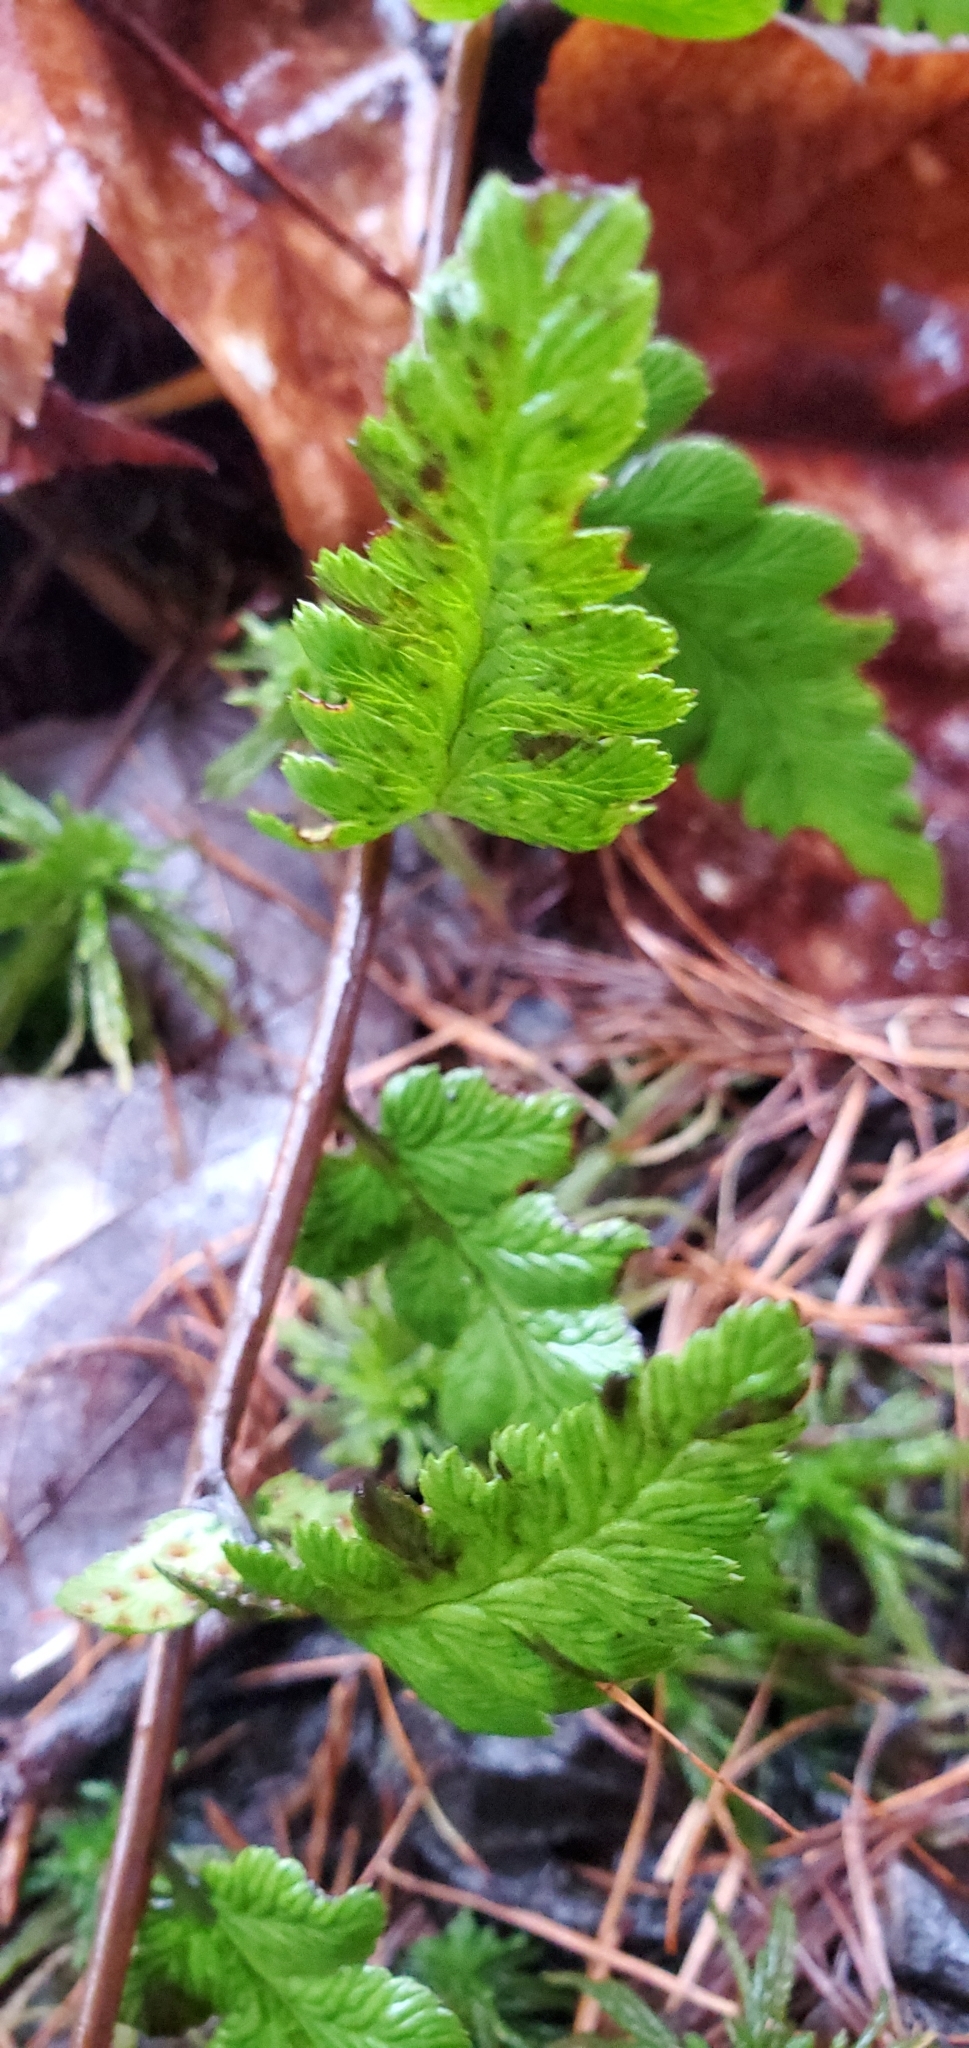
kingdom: Plantae
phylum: Tracheophyta
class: Polypodiopsida
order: Polypodiales
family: Dryopteridaceae
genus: Dryopteris
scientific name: Dryopteris cristata
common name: Crested wood fern
